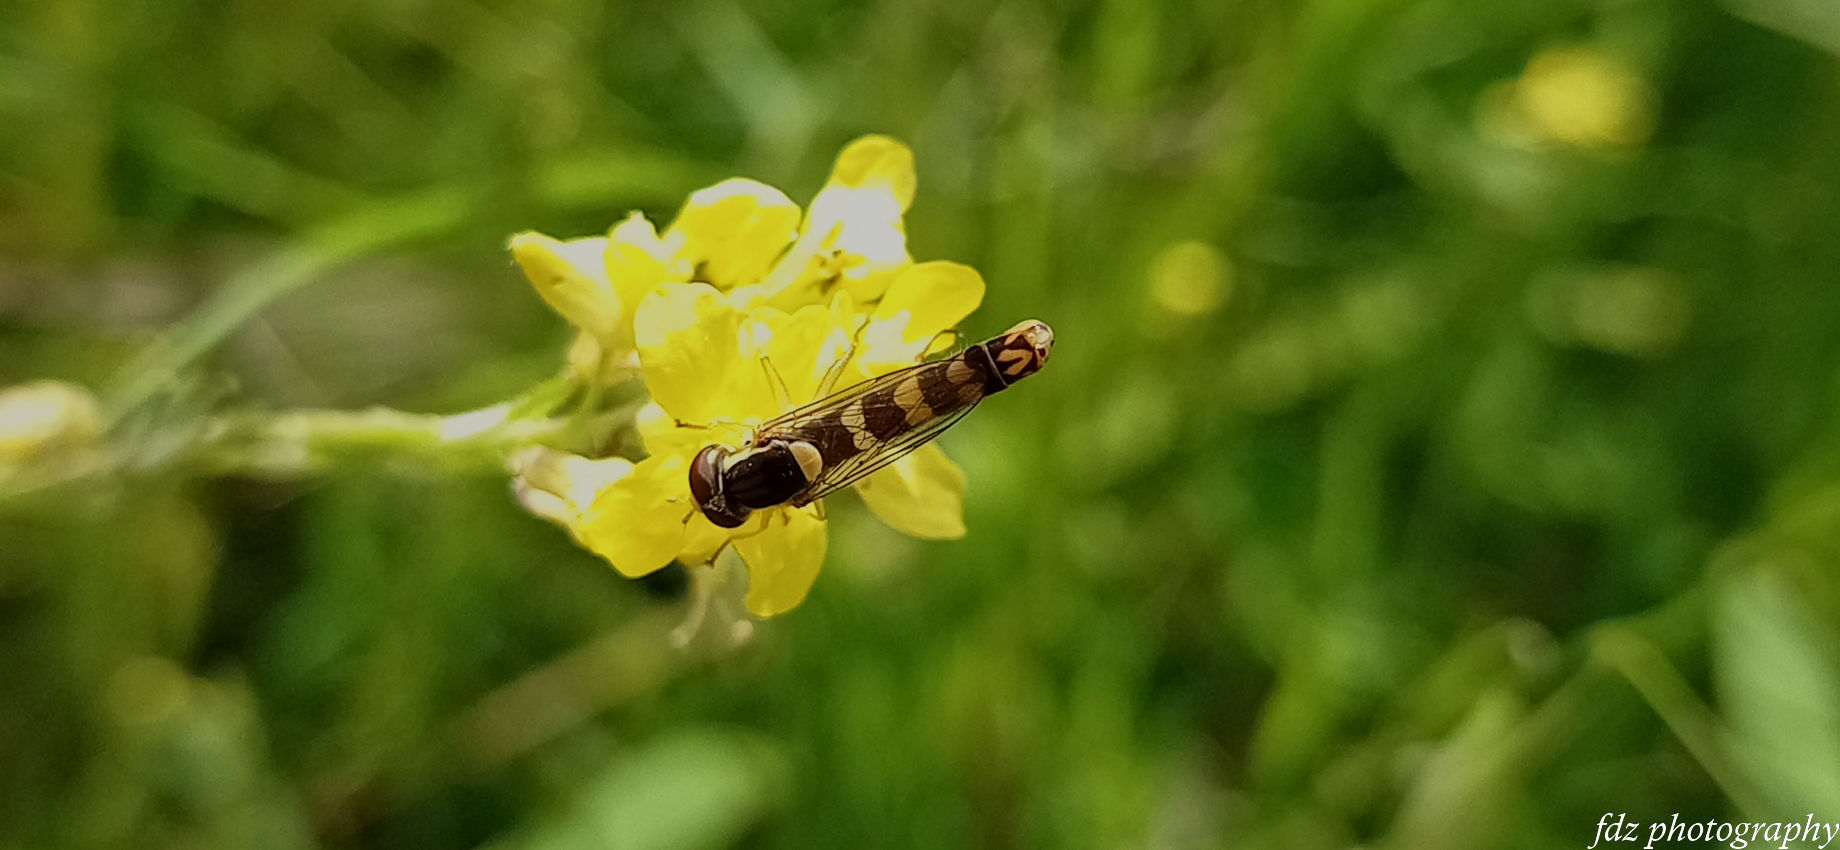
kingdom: Animalia
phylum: Arthropoda
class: Insecta
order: Diptera
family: Syrphidae
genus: Sphaerophoria
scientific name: Sphaerophoria scripta
